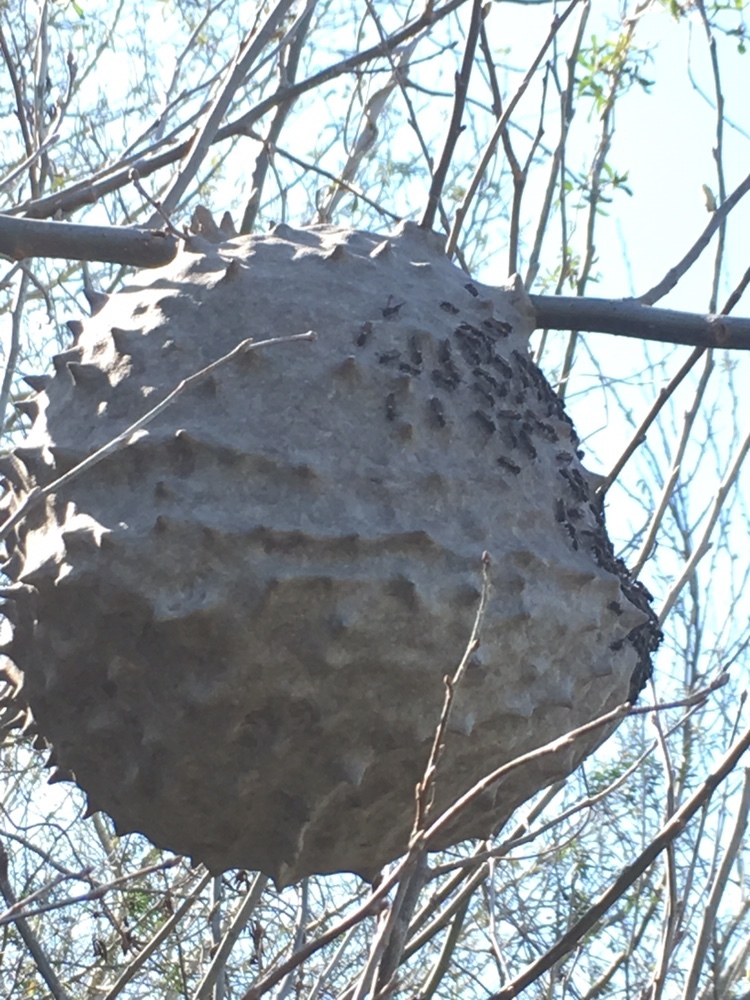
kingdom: Animalia
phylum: Arthropoda
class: Insecta
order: Hymenoptera
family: Eumenidae
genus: Polybia
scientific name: Polybia scutellaris
